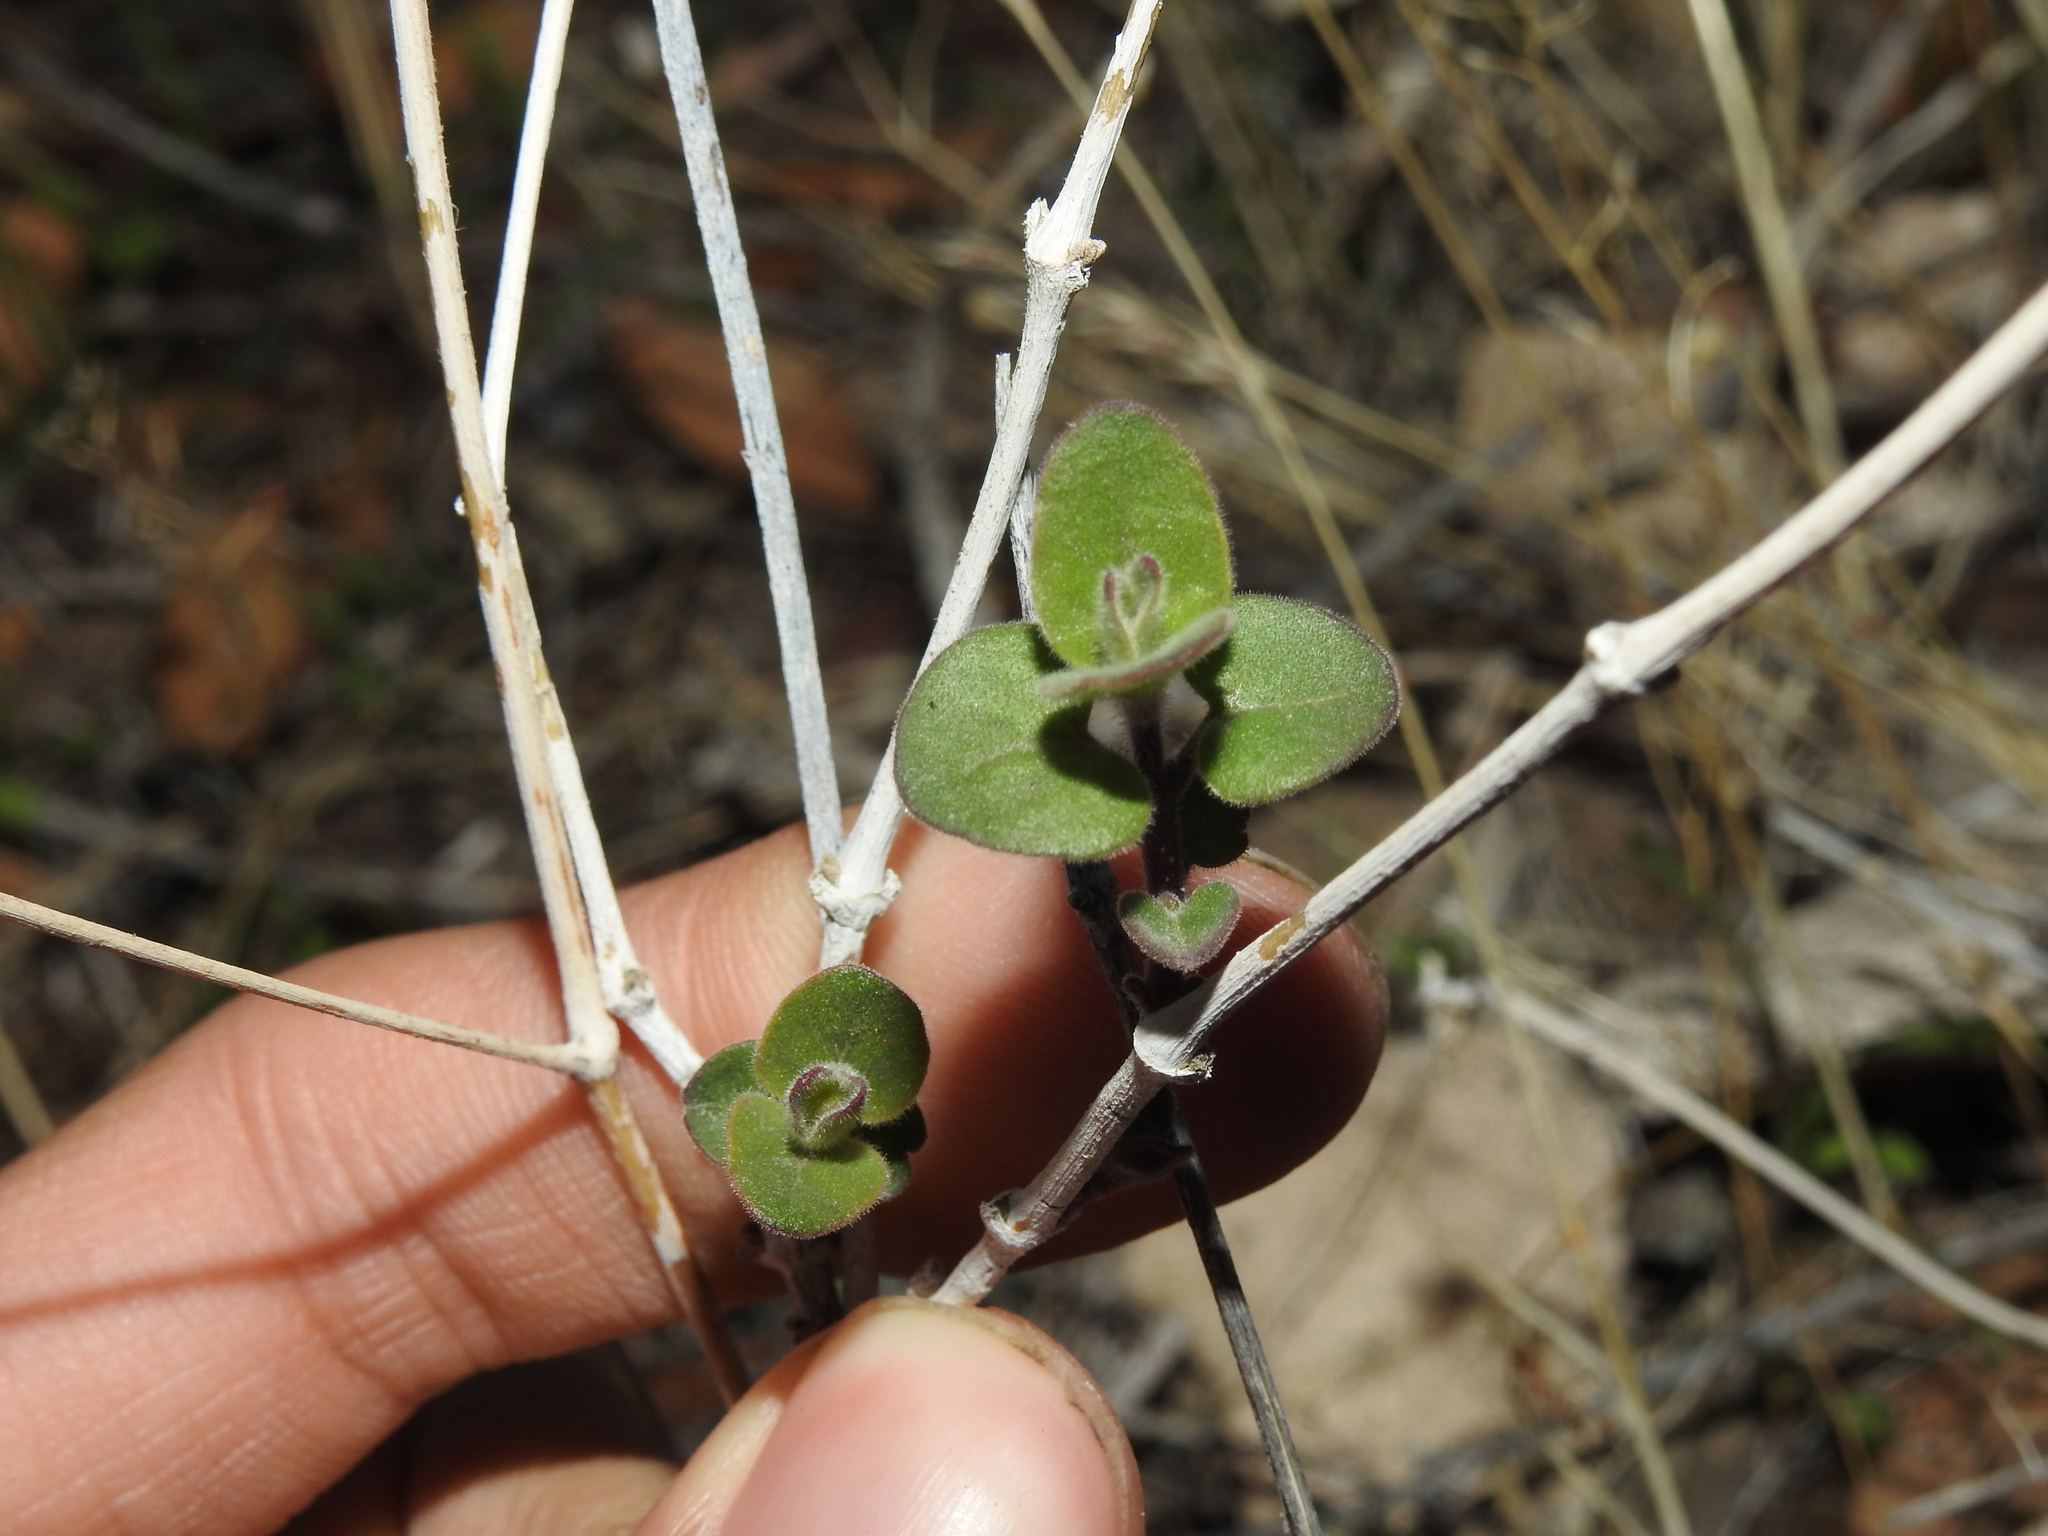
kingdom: Plantae
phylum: Tracheophyta
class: Magnoliopsida
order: Caryophyllales
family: Nyctaginaceae
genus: Mirabilis
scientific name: Mirabilis laevis
